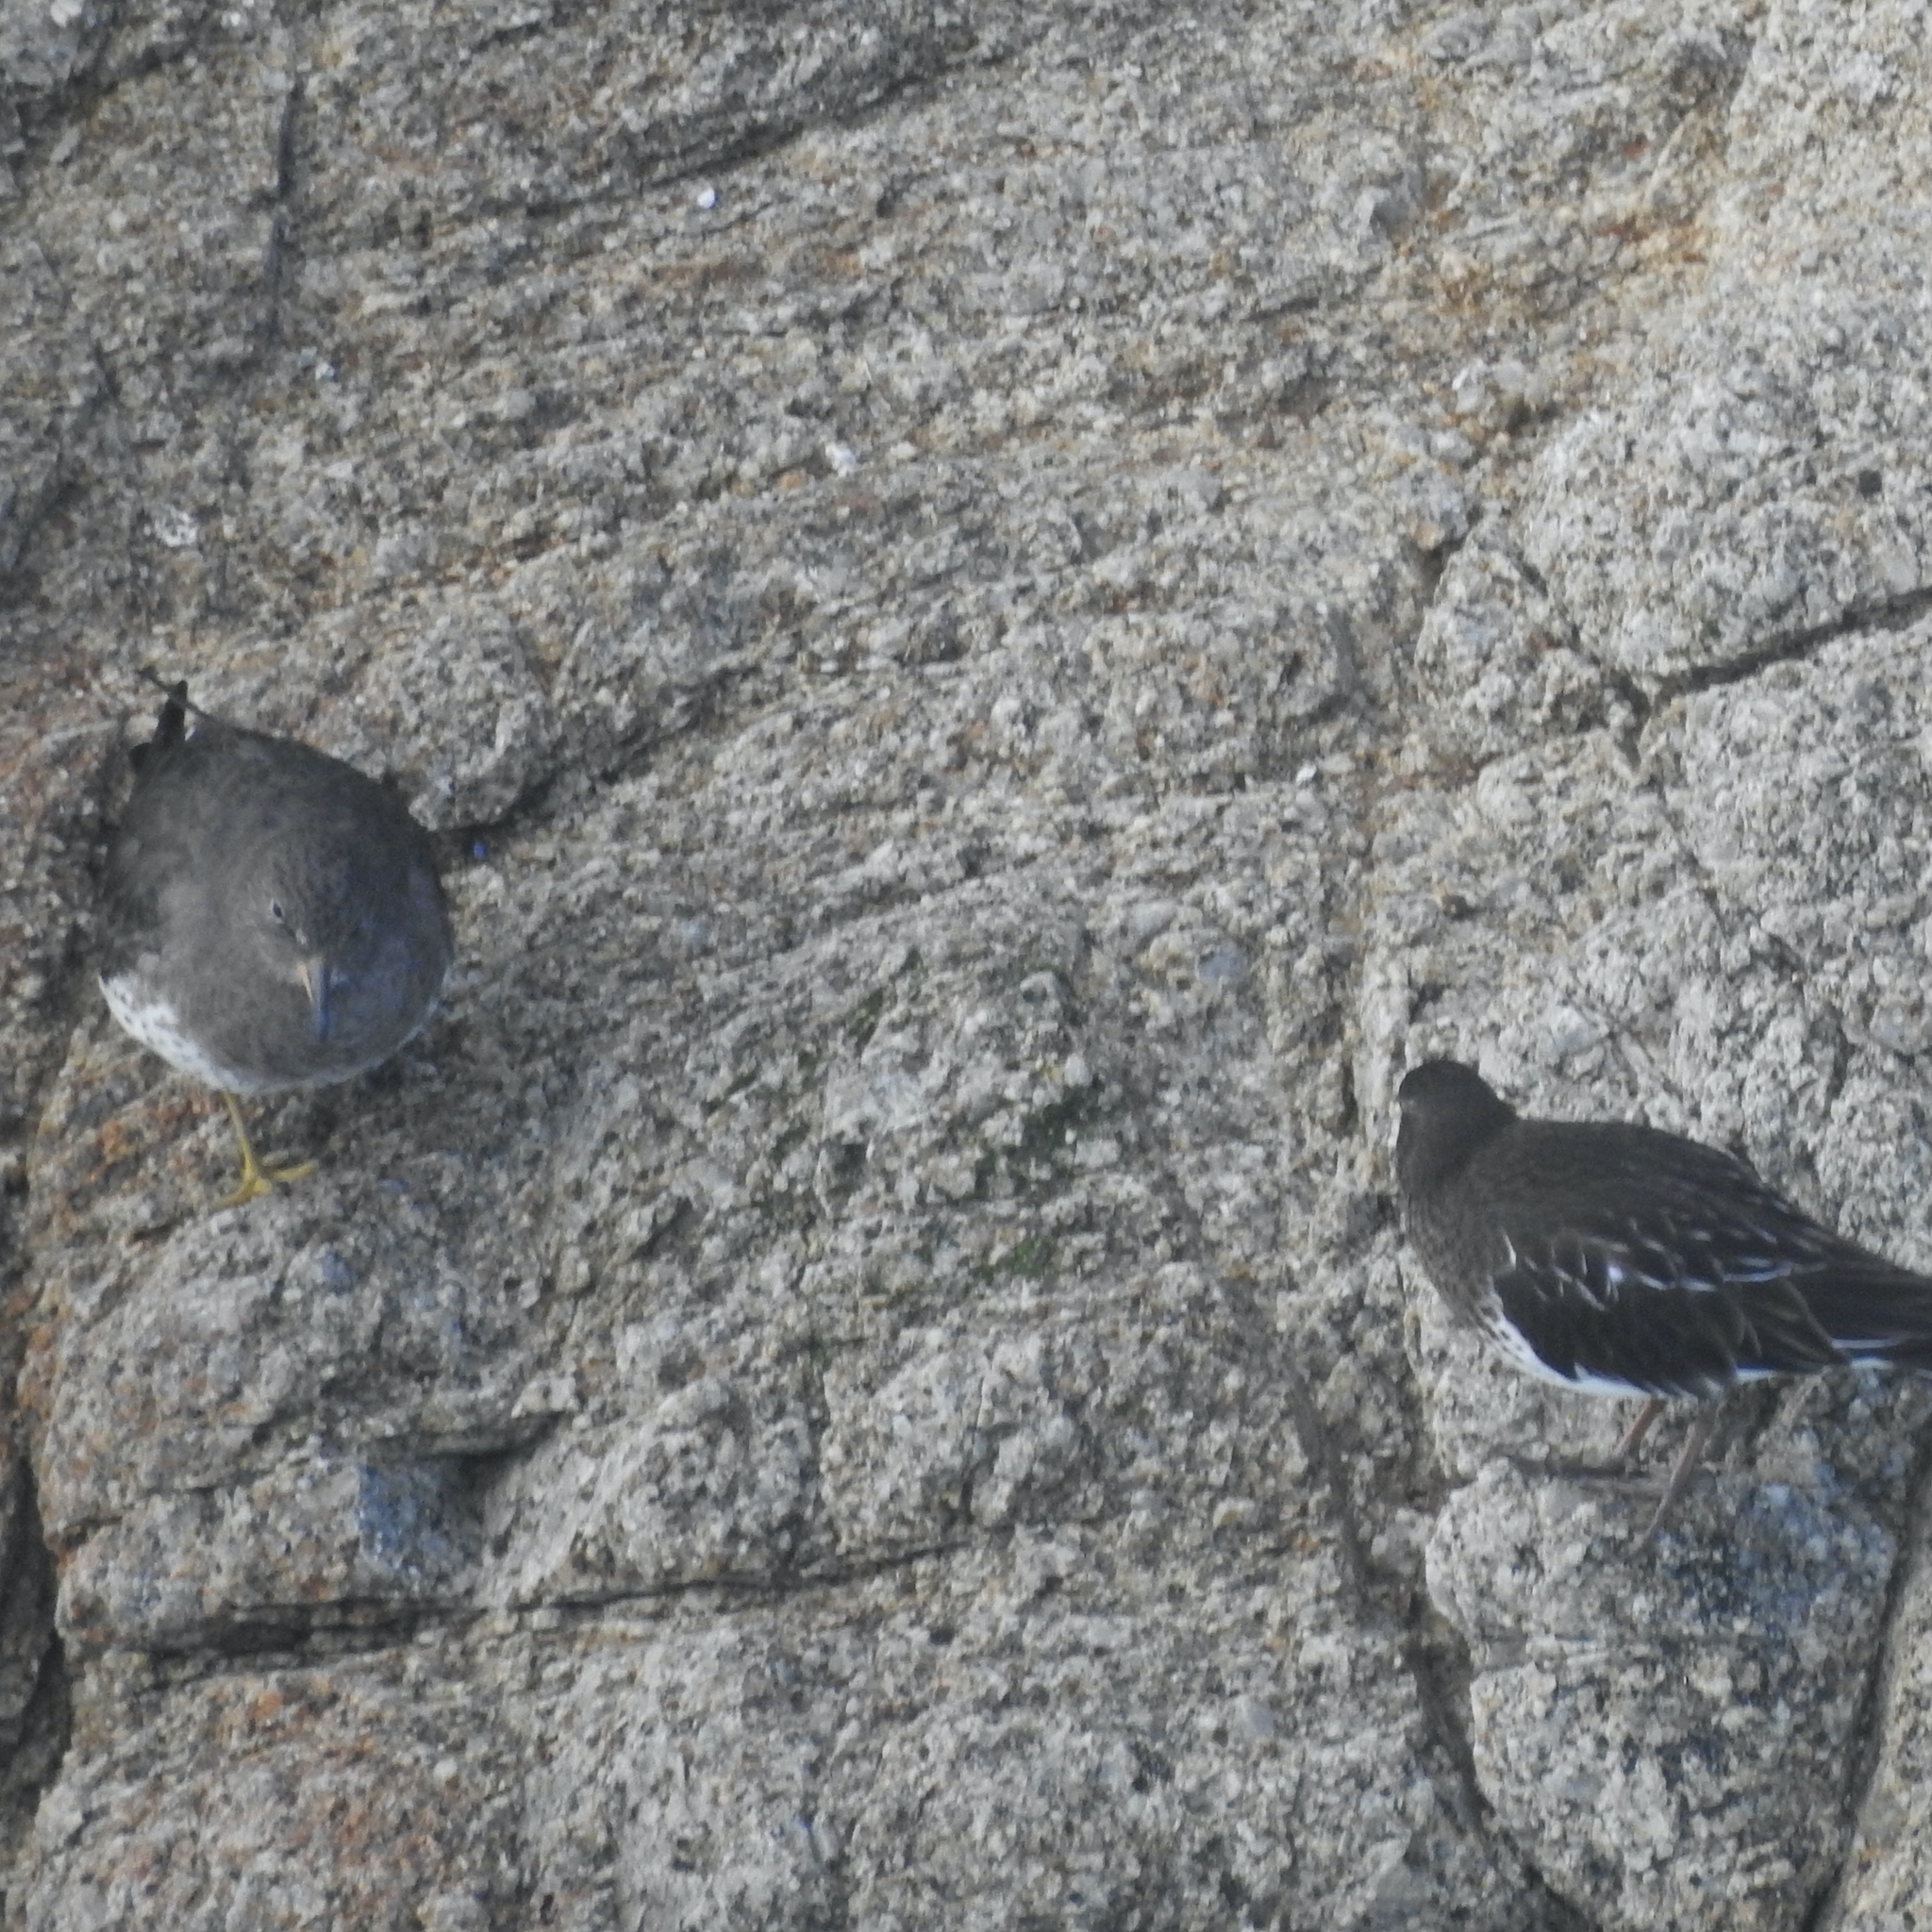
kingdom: Animalia
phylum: Chordata
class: Aves
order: Charadriiformes
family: Scolopacidae
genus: Arenaria
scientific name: Arenaria melanocephala
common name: Black turnstone
